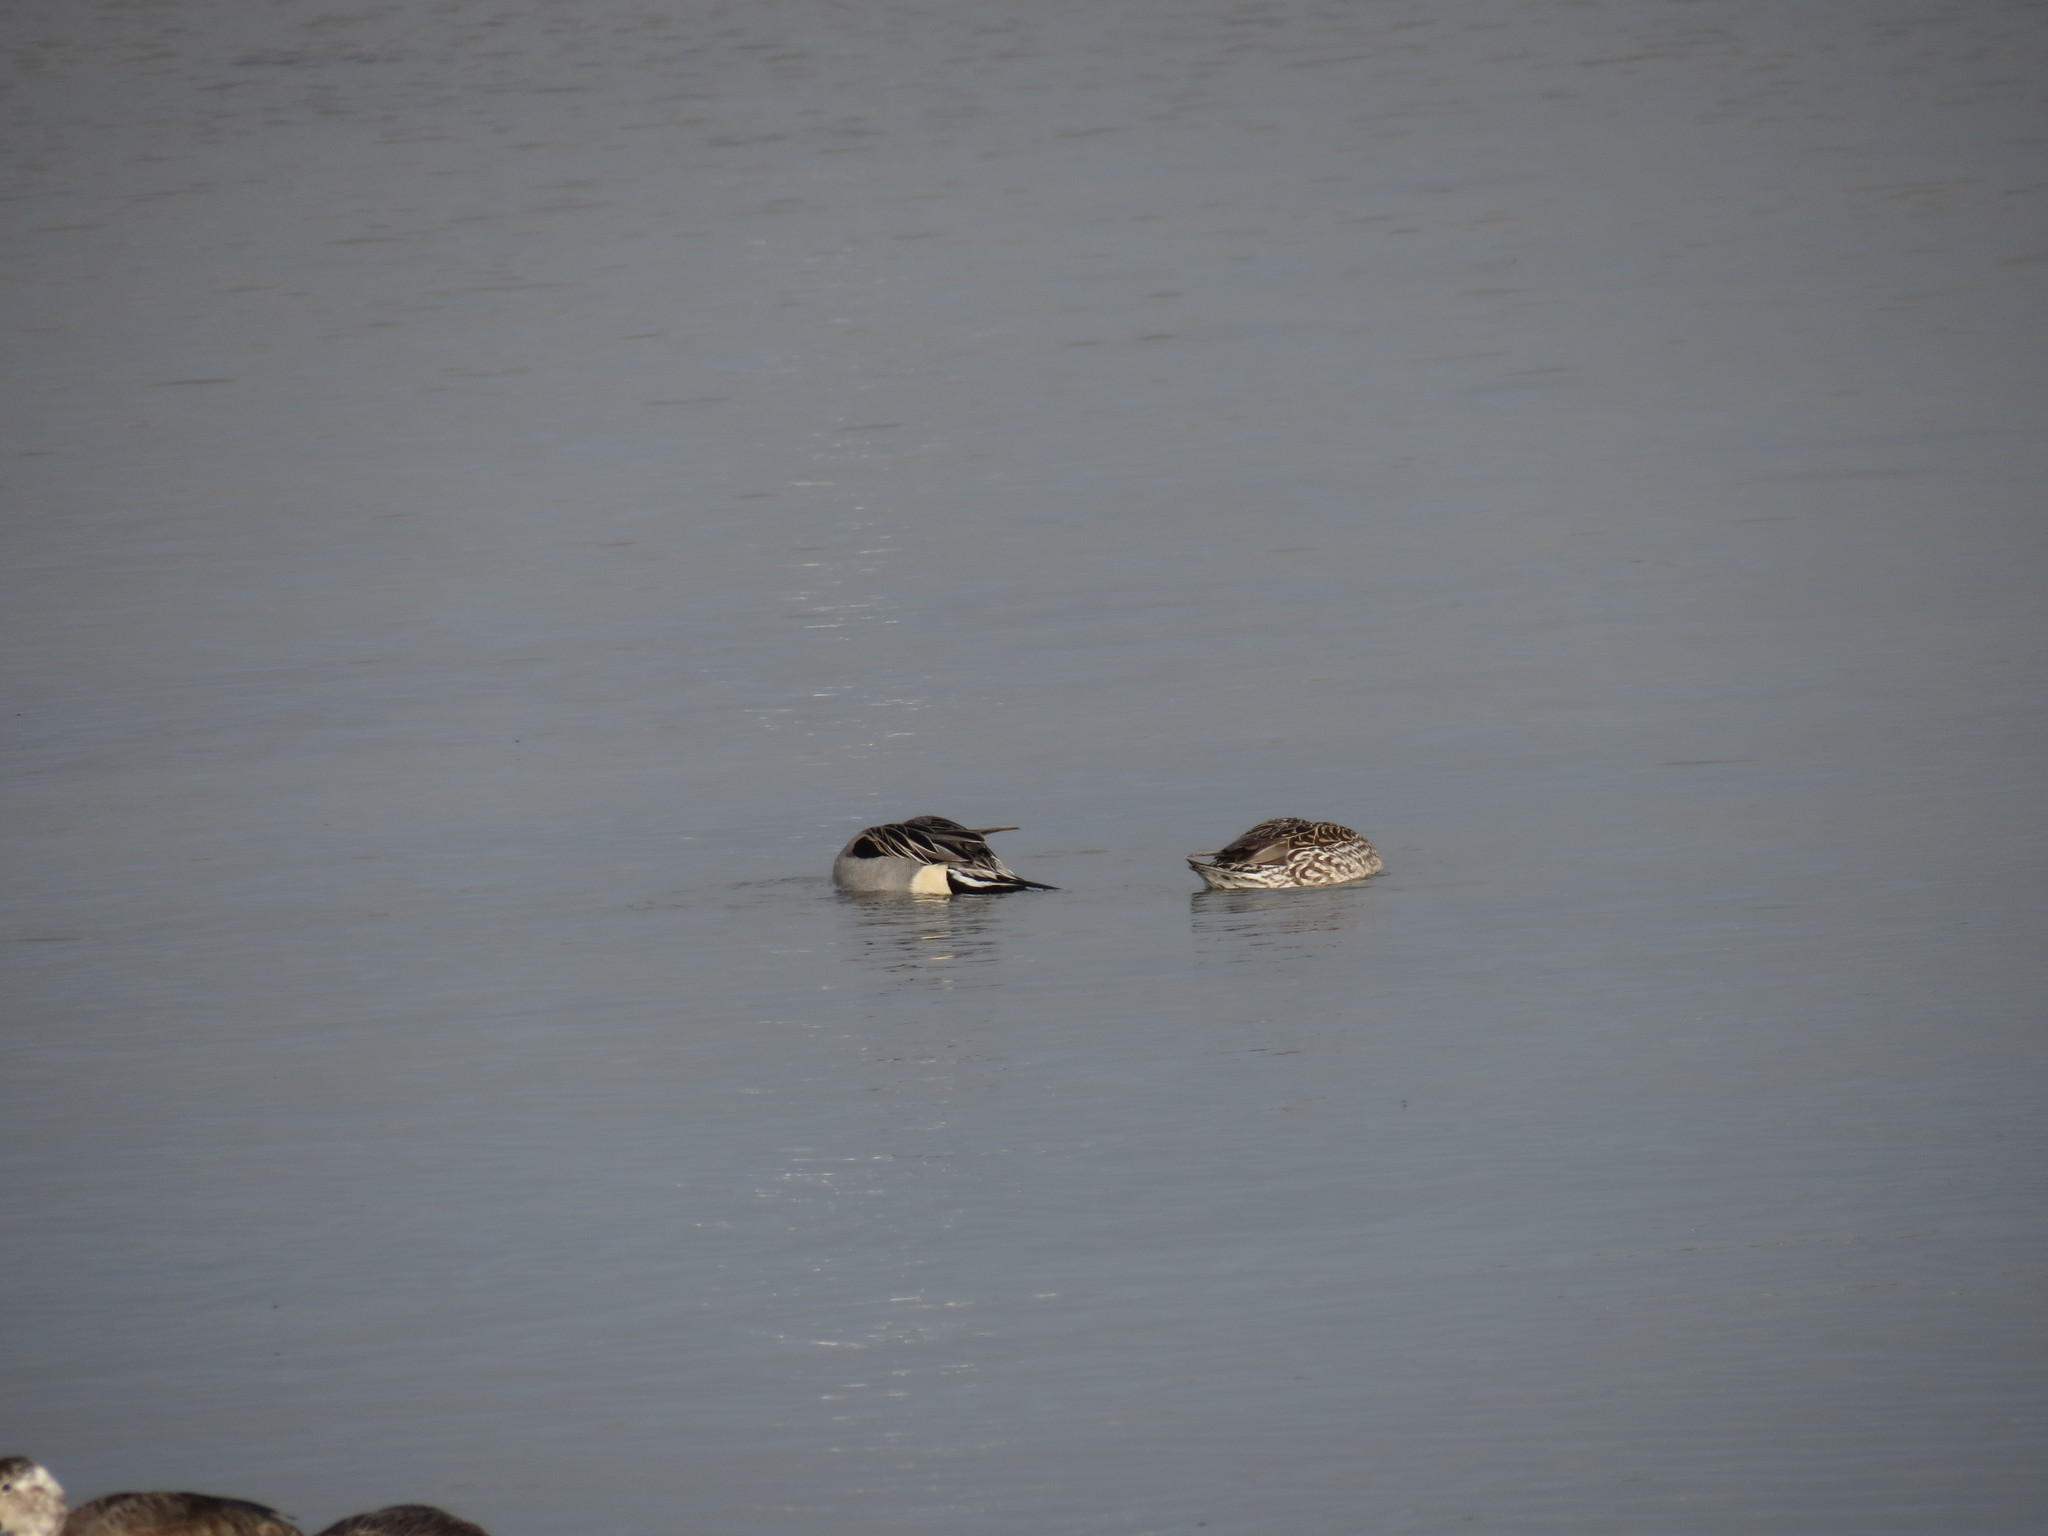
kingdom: Animalia
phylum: Chordata
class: Aves
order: Anseriformes
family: Anatidae
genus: Anas
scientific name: Anas acuta
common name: Northern pintail
